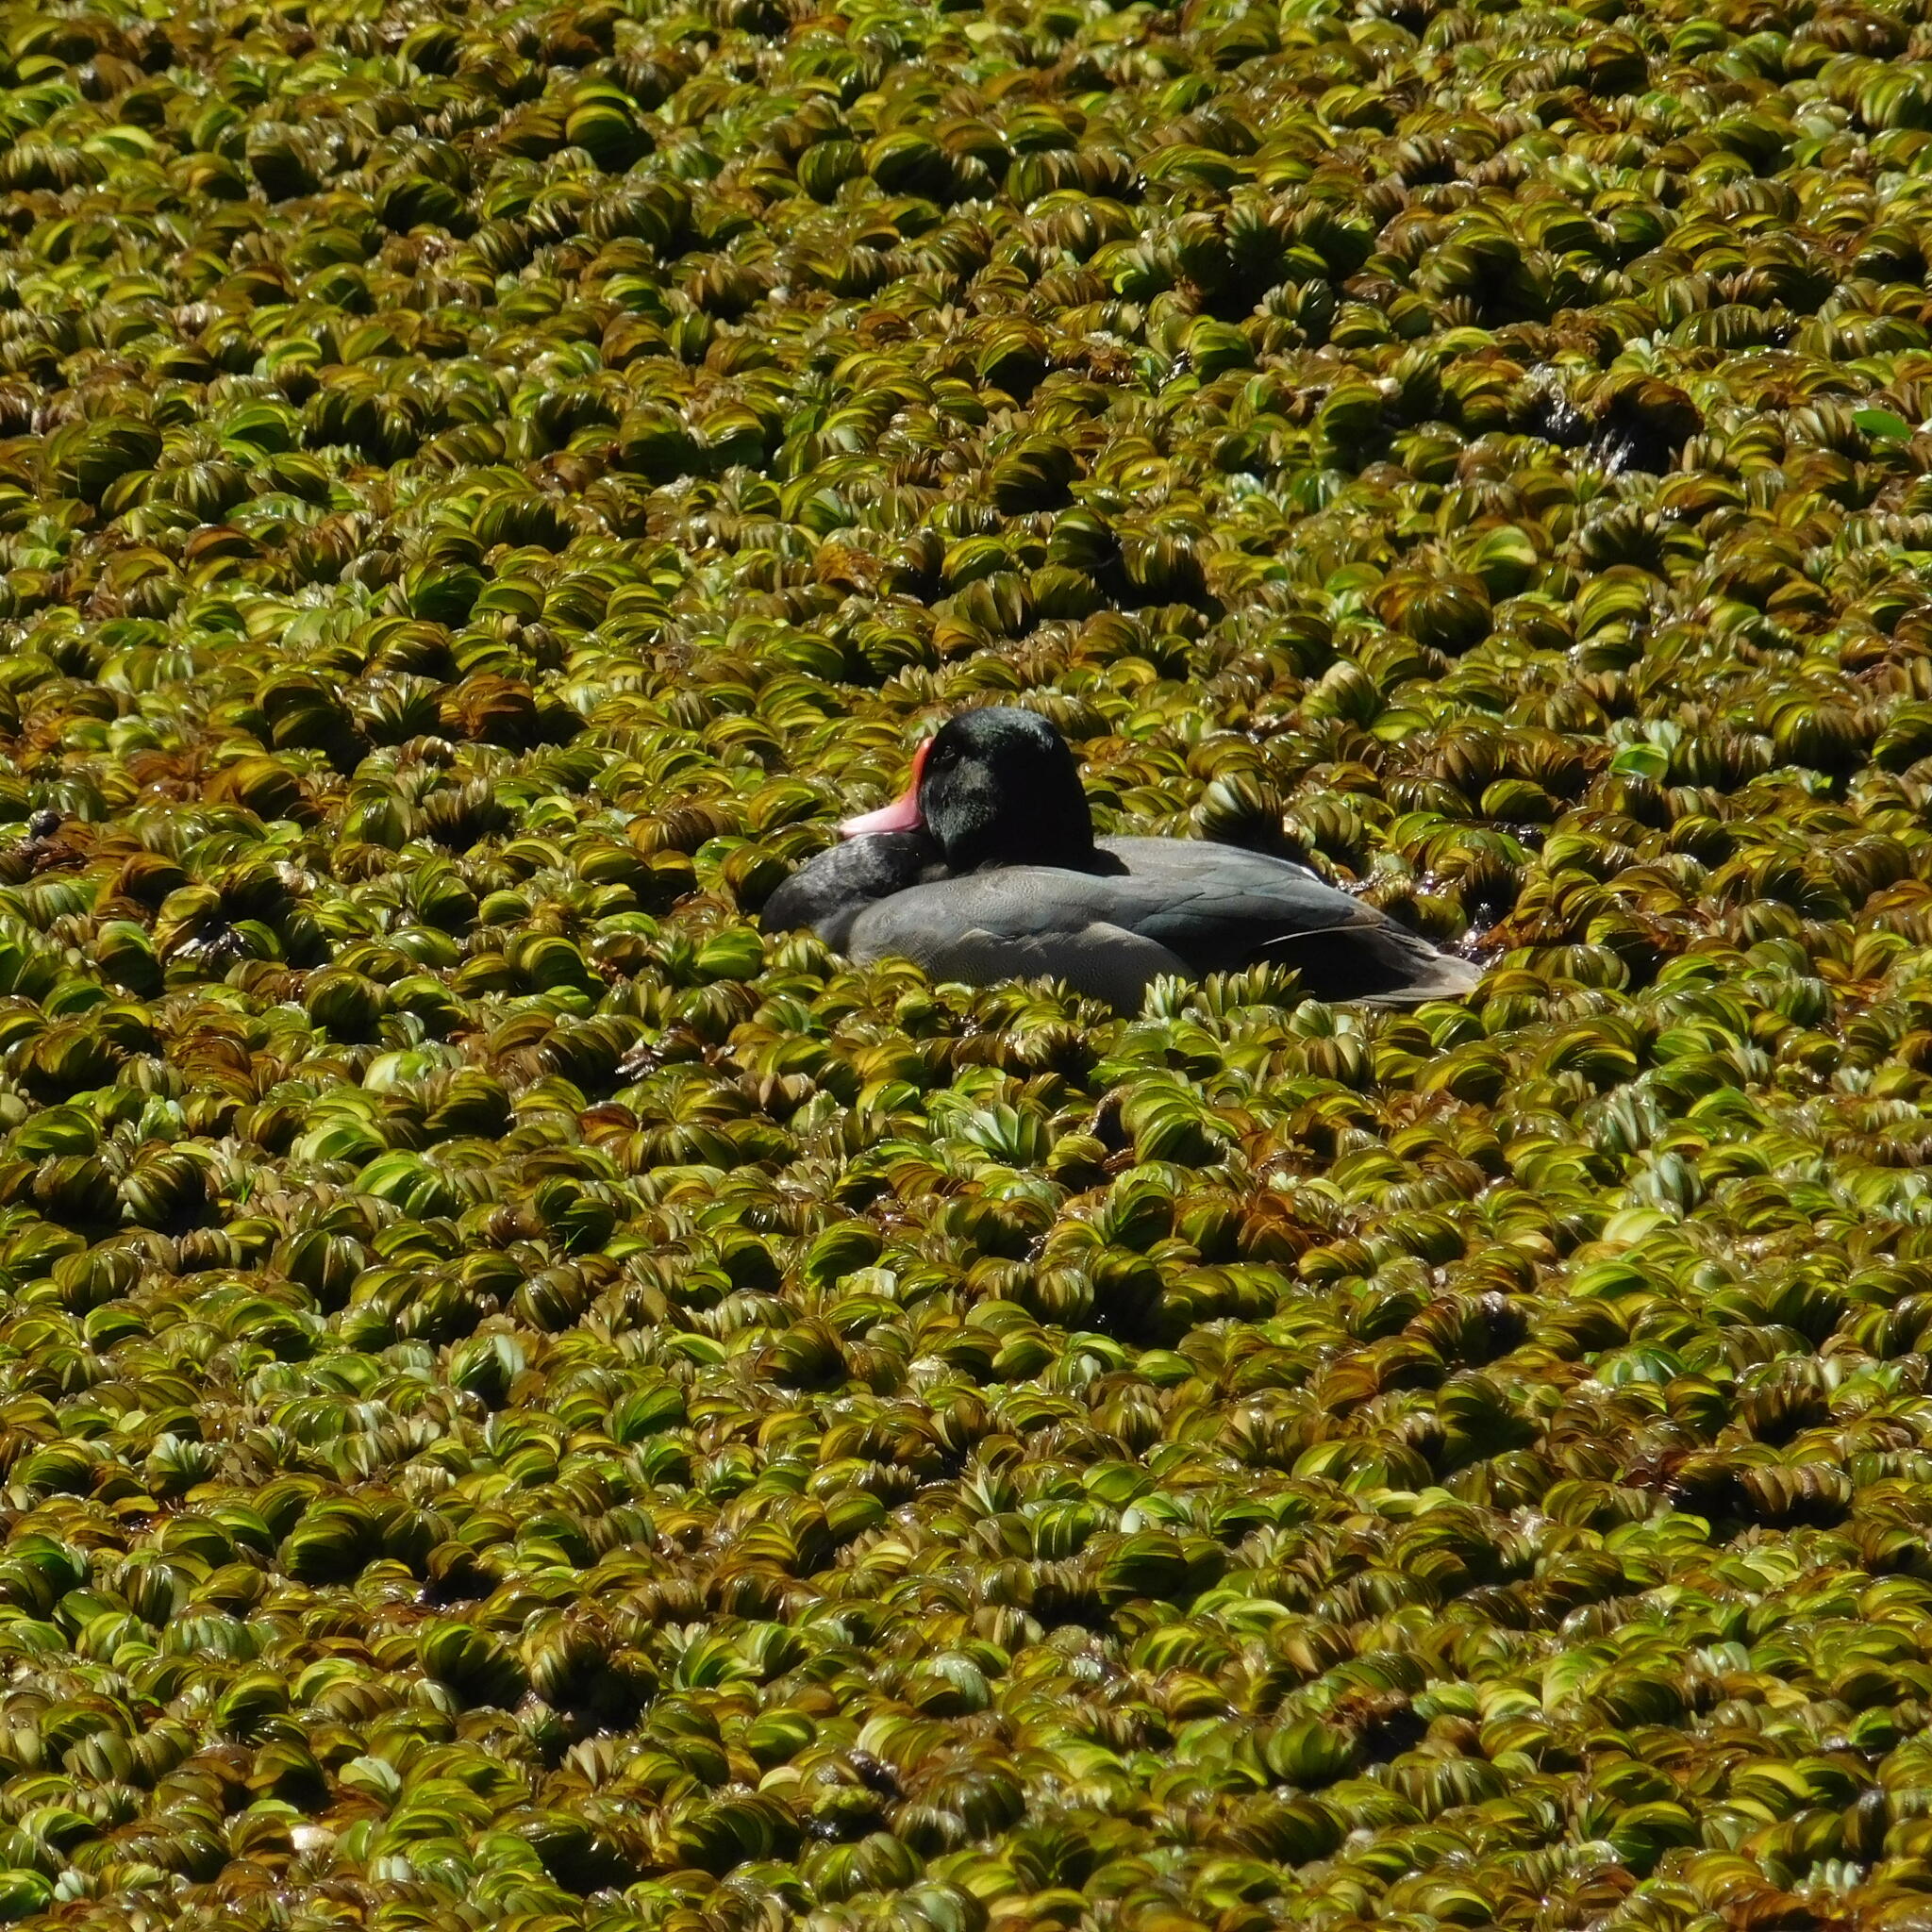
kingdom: Animalia
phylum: Chordata
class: Aves
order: Anseriformes
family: Anatidae
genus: Netta
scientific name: Netta peposaca
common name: Rosy-billed pochard
